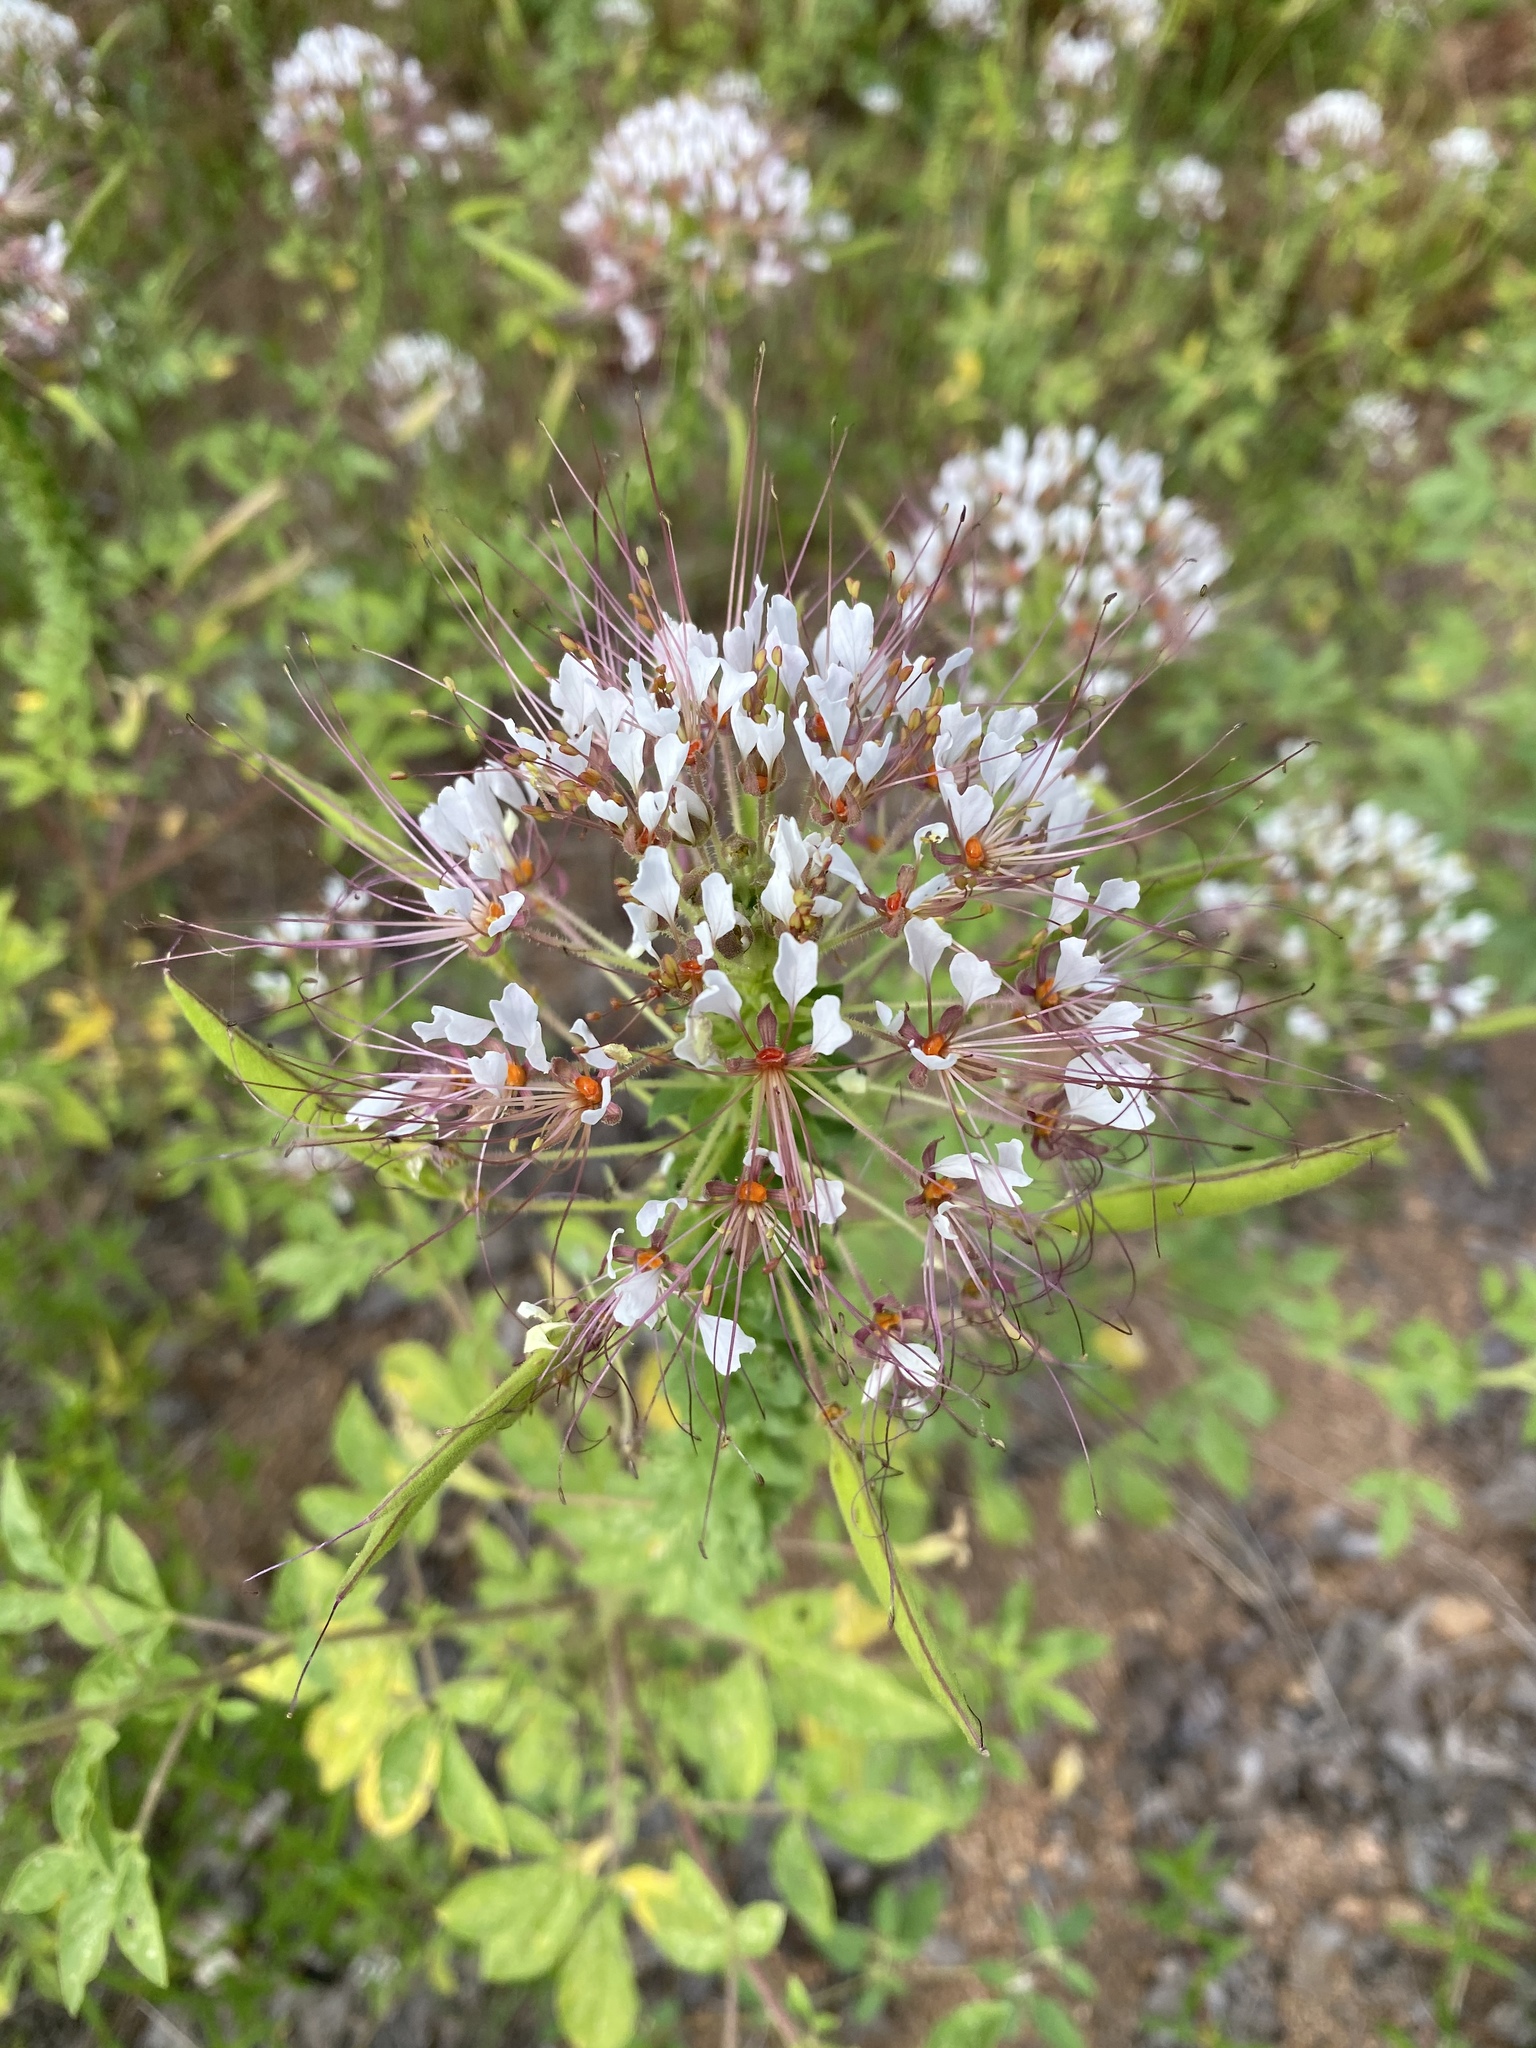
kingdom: Plantae
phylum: Tracheophyta
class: Magnoliopsida
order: Brassicales
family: Cleomaceae
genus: Polanisia
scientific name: Polanisia dodecandra
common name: Clammyweed
